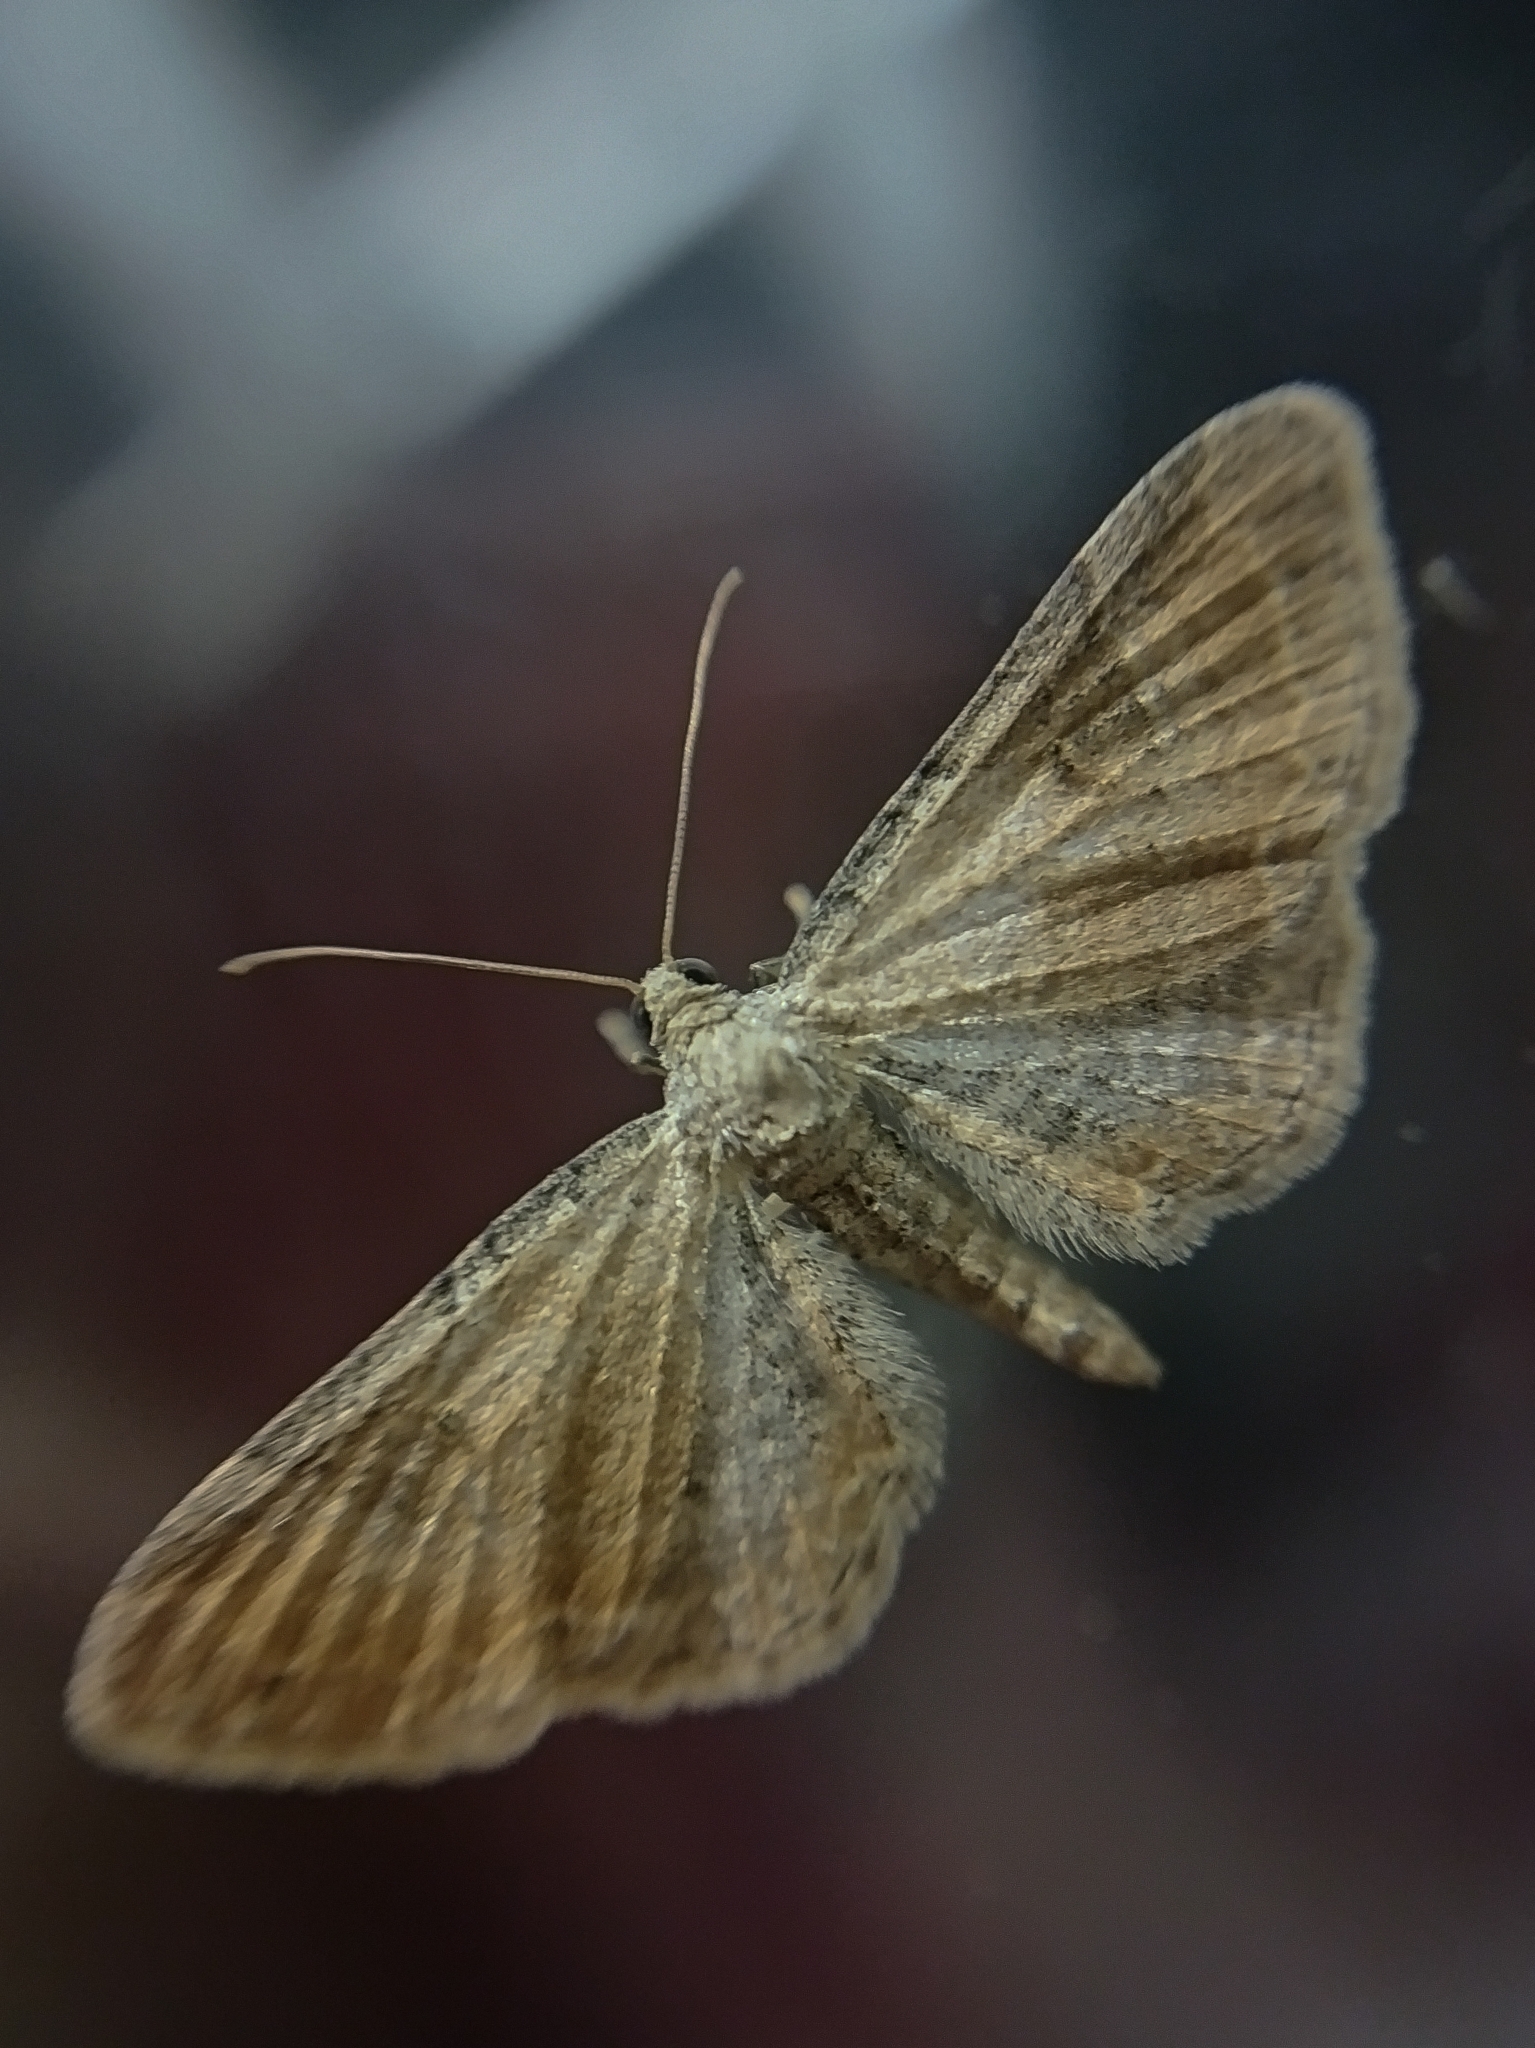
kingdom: Animalia
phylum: Arthropoda
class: Insecta
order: Lepidoptera
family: Geometridae
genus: Eupithecia
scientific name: Eupithecia simpliciata
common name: Plain pug
